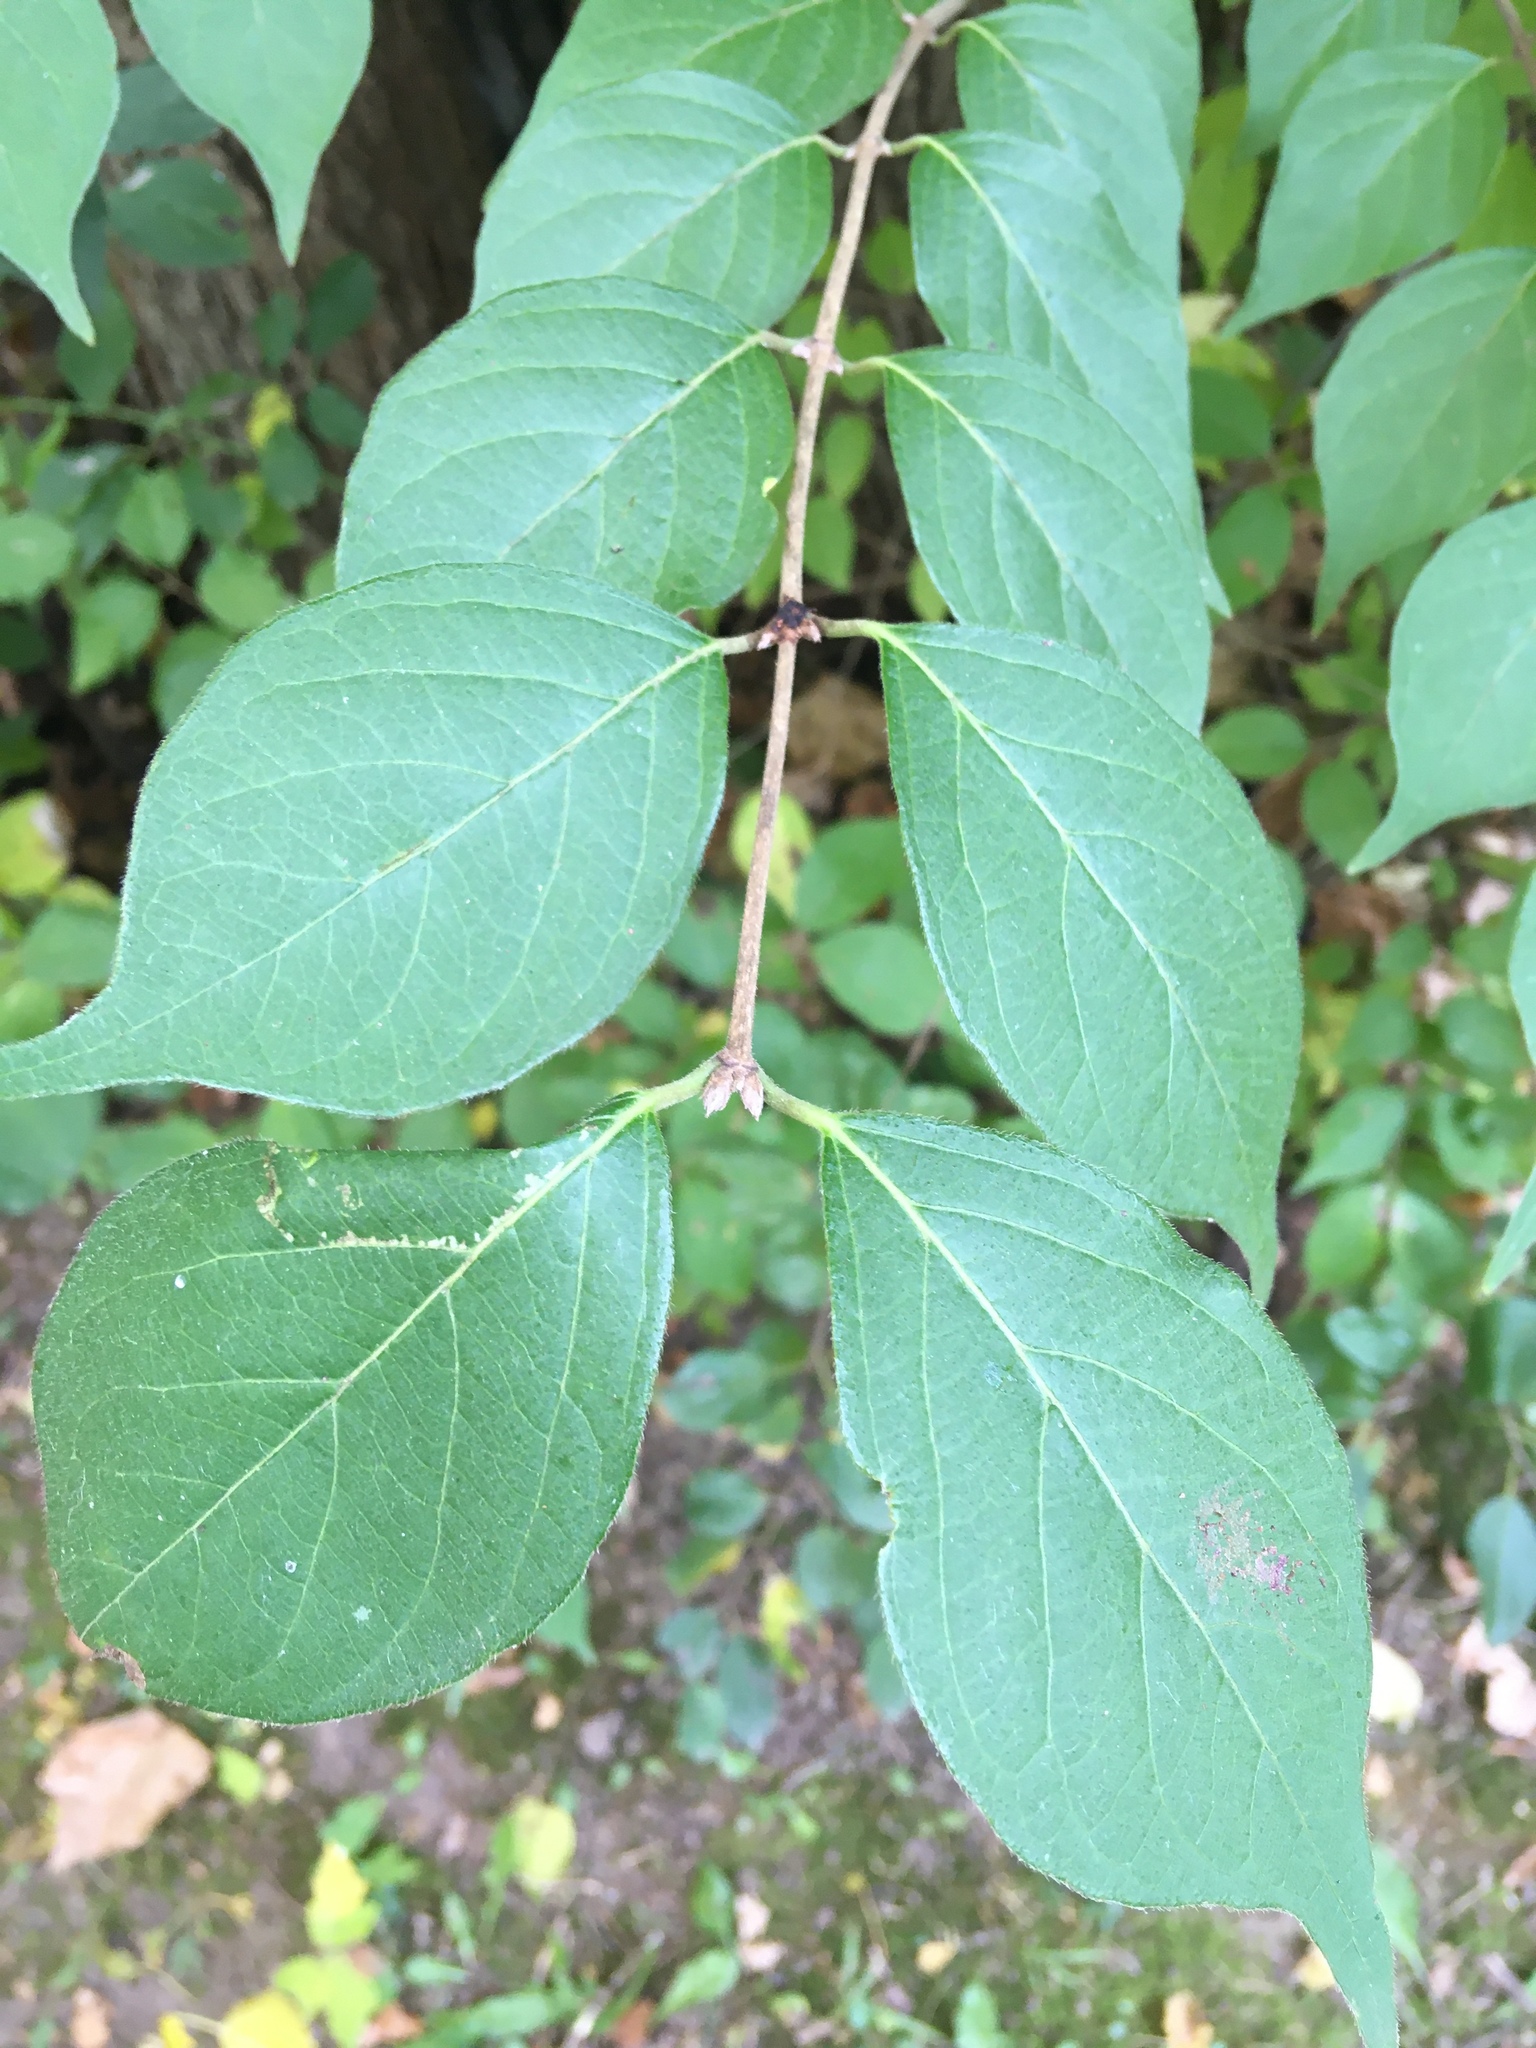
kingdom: Plantae
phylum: Tracheophyta
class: Magnoliopsida
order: Dipsacales
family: Caprifoliaceae
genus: Lonicera
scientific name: Lonicera maackii
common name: Amur honeysuckle
